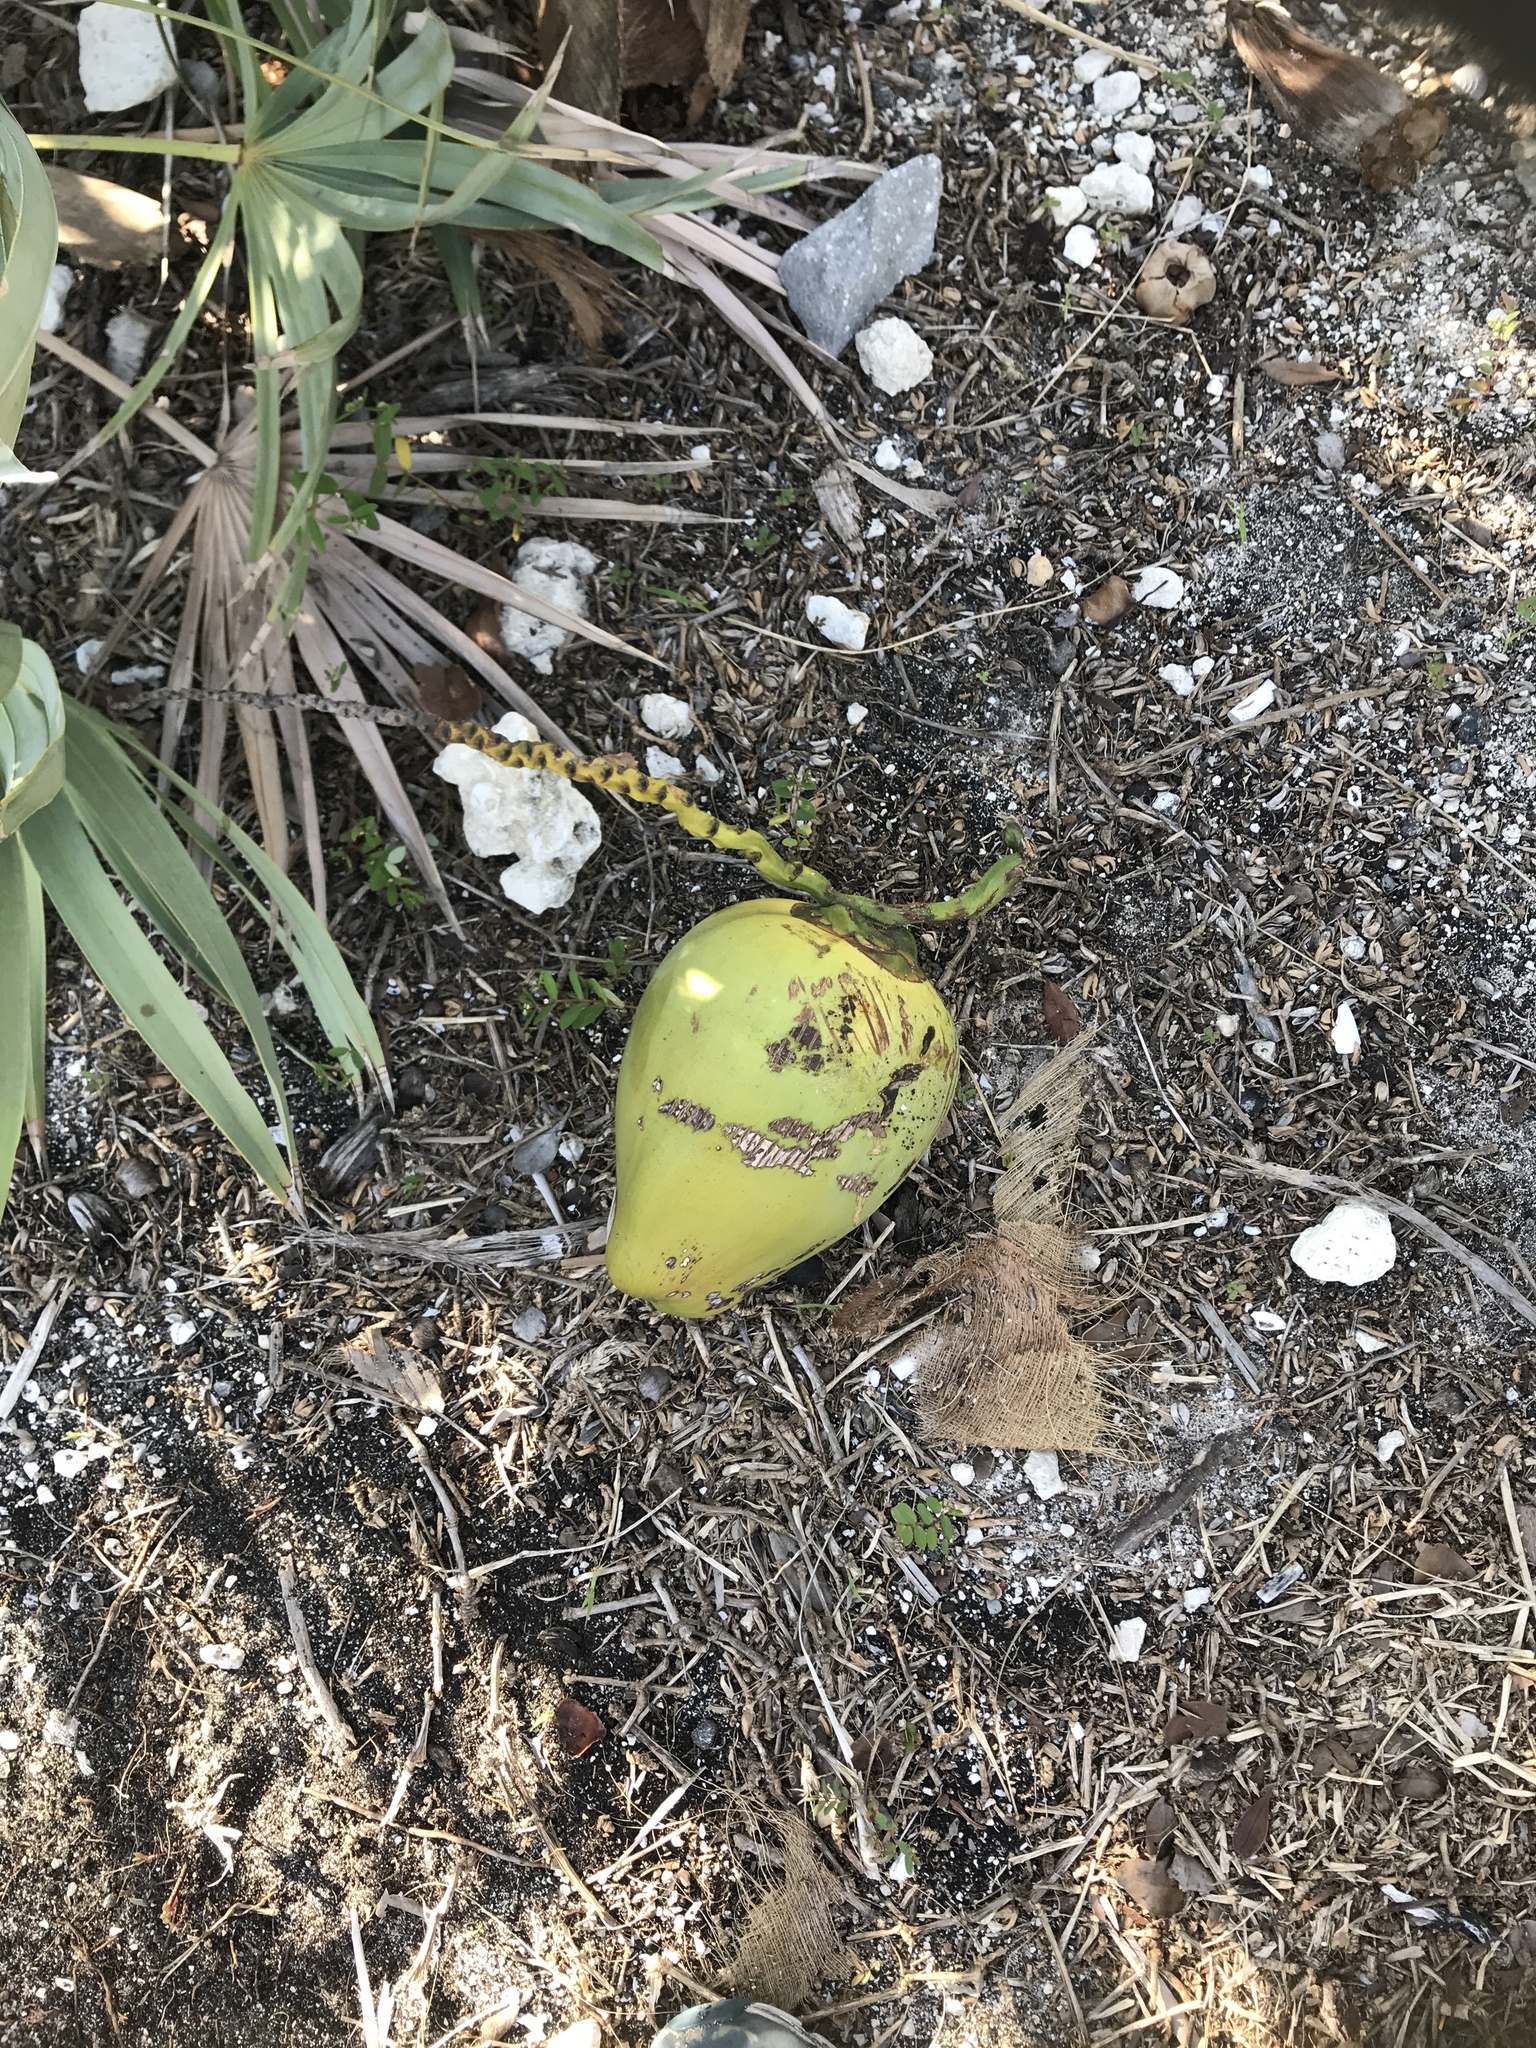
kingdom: Plantae
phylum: Tracheophyta
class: Liliopsida
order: Arecales
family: Arecaceae
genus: Cocos
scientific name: Cocos nucifera
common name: Coconut palm
